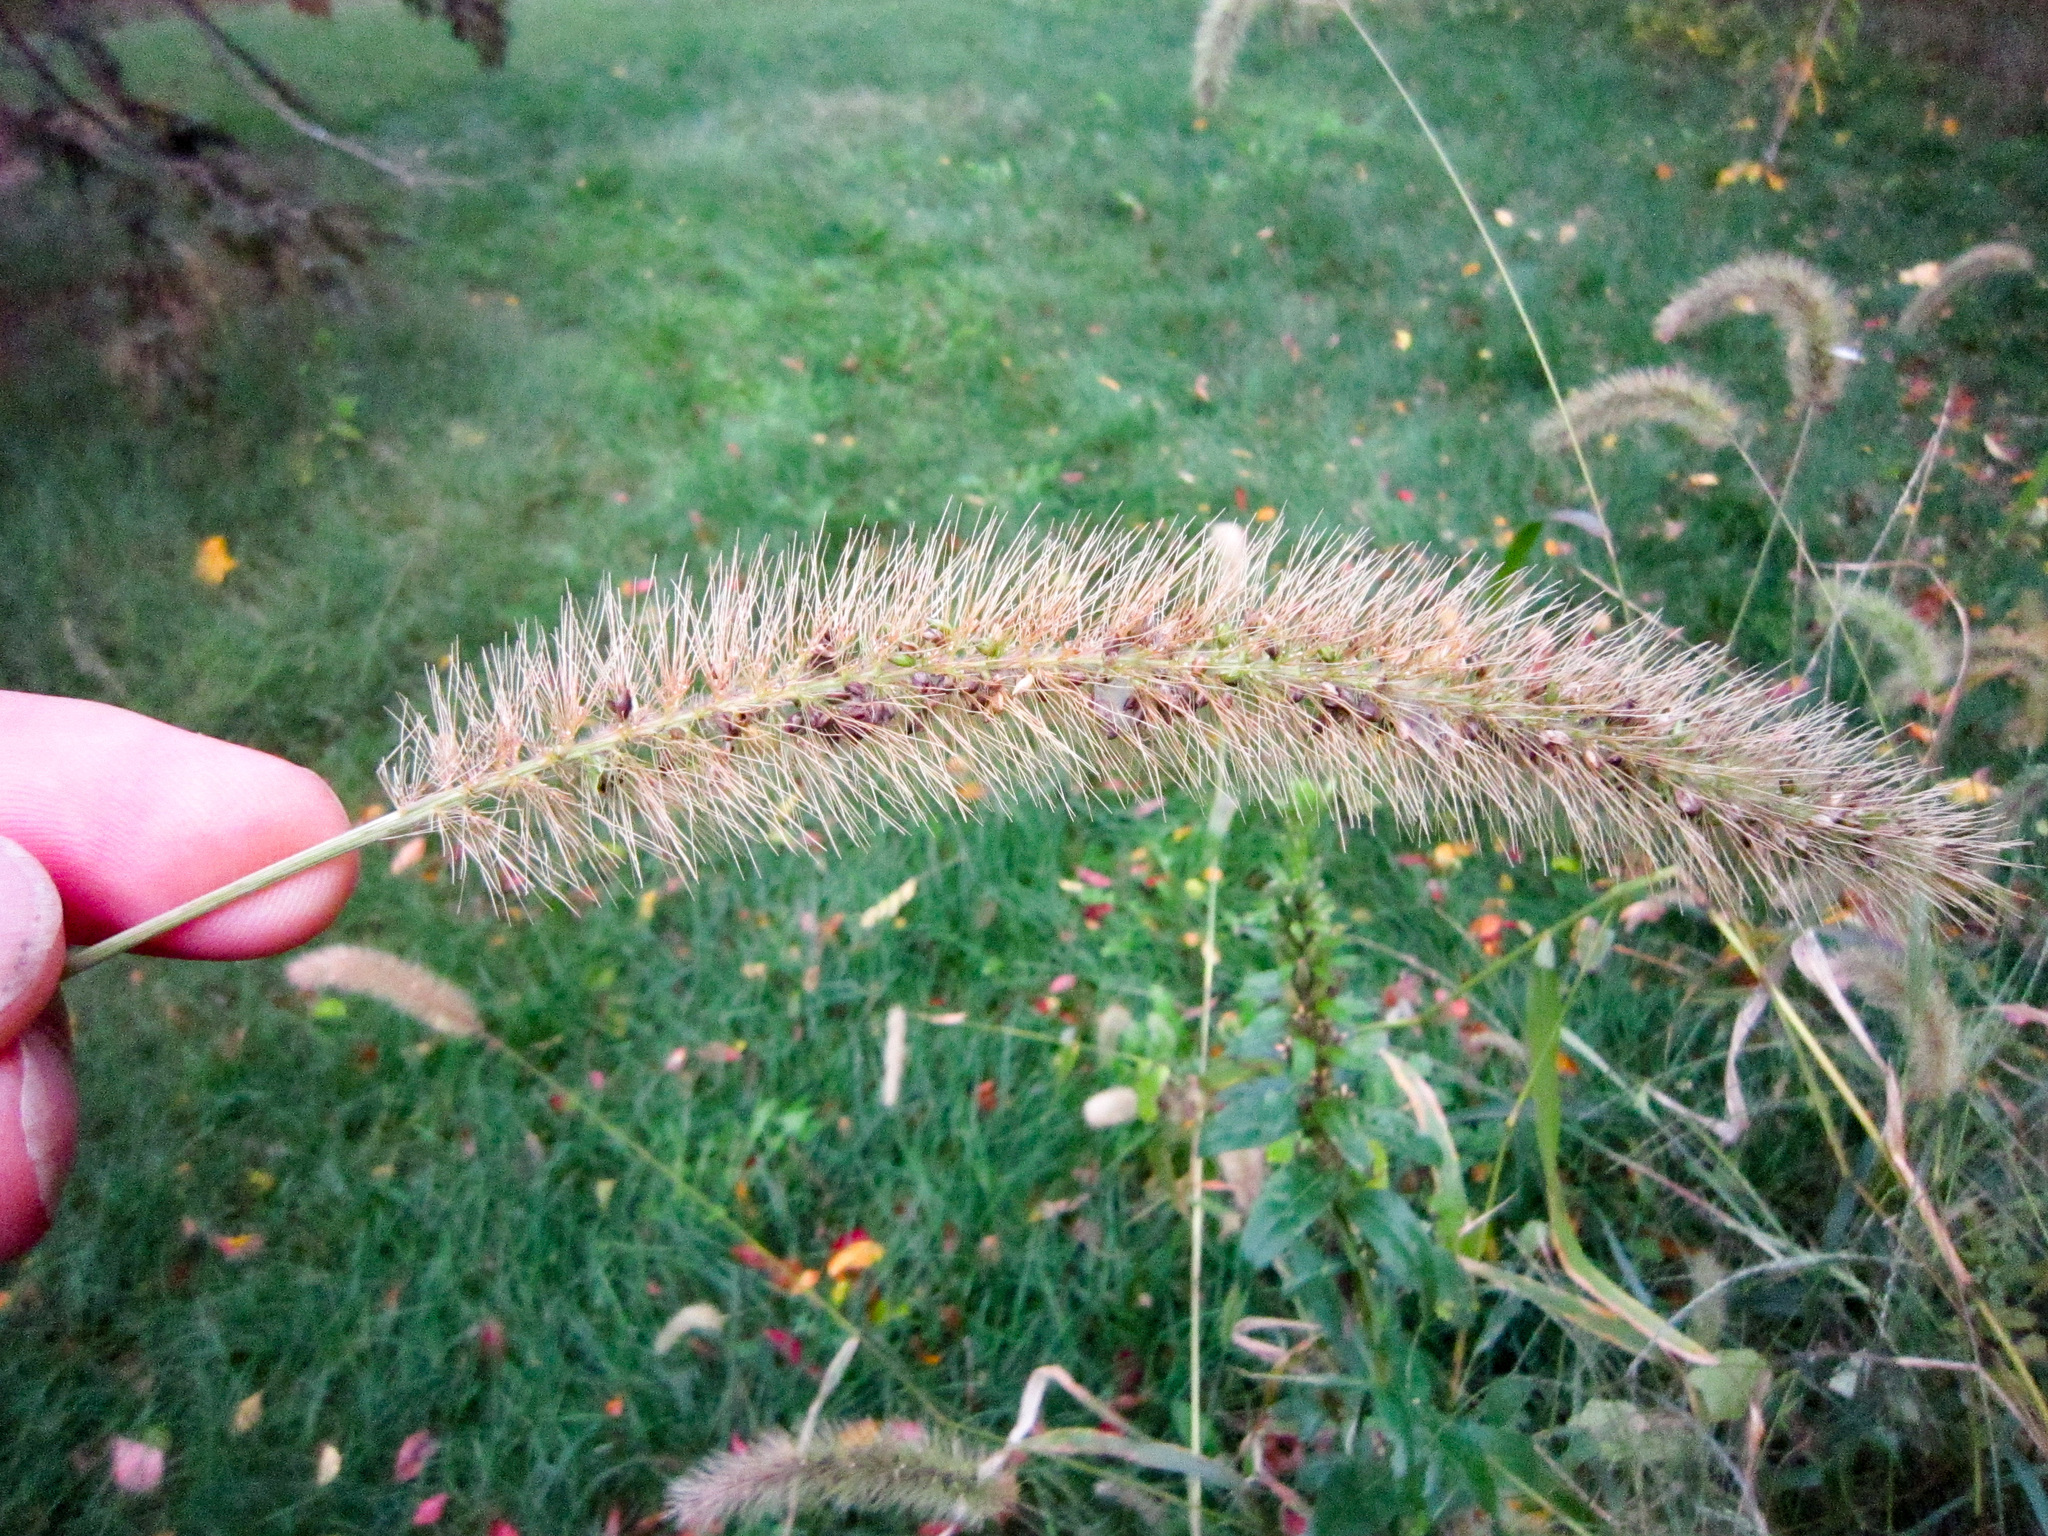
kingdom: Plantae
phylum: Tracheophyta
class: Liliopsida
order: Poales
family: Poaceae
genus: Setaria
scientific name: Setaria faberi
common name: Nodding bristle-grass
